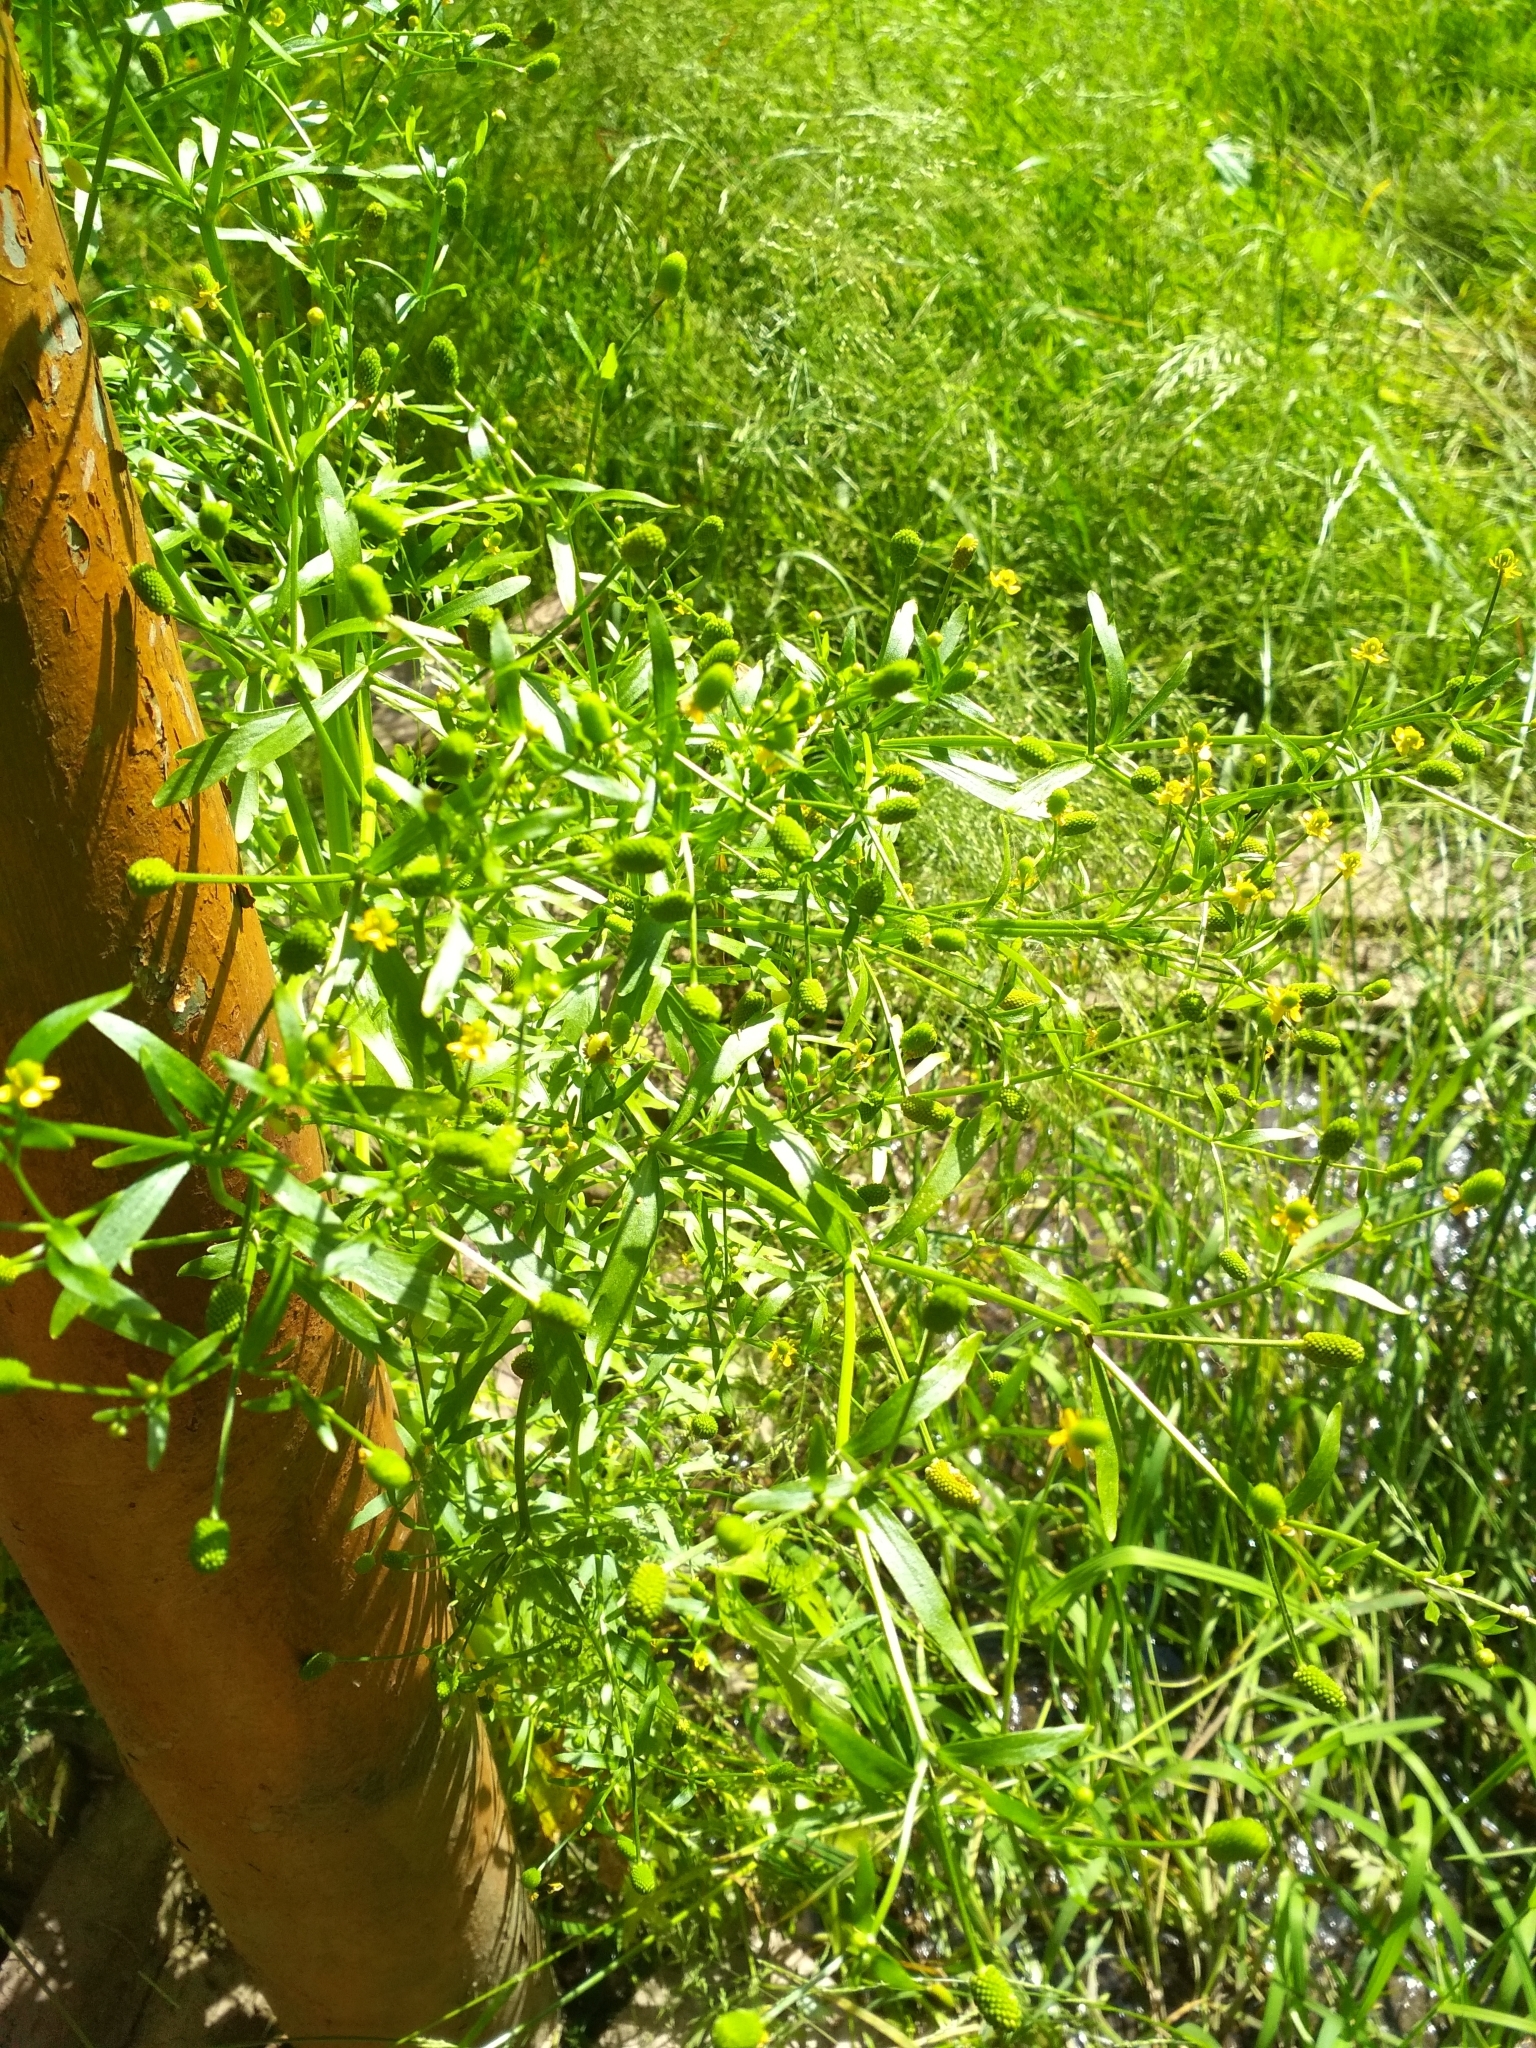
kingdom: Plantae
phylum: Tracheophyta
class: Magnoliopsida
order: Ranunculales
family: Ranunculaceae
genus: Ranunculus
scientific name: Ranunculus sceleratus
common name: Celery-leaved buttercup
